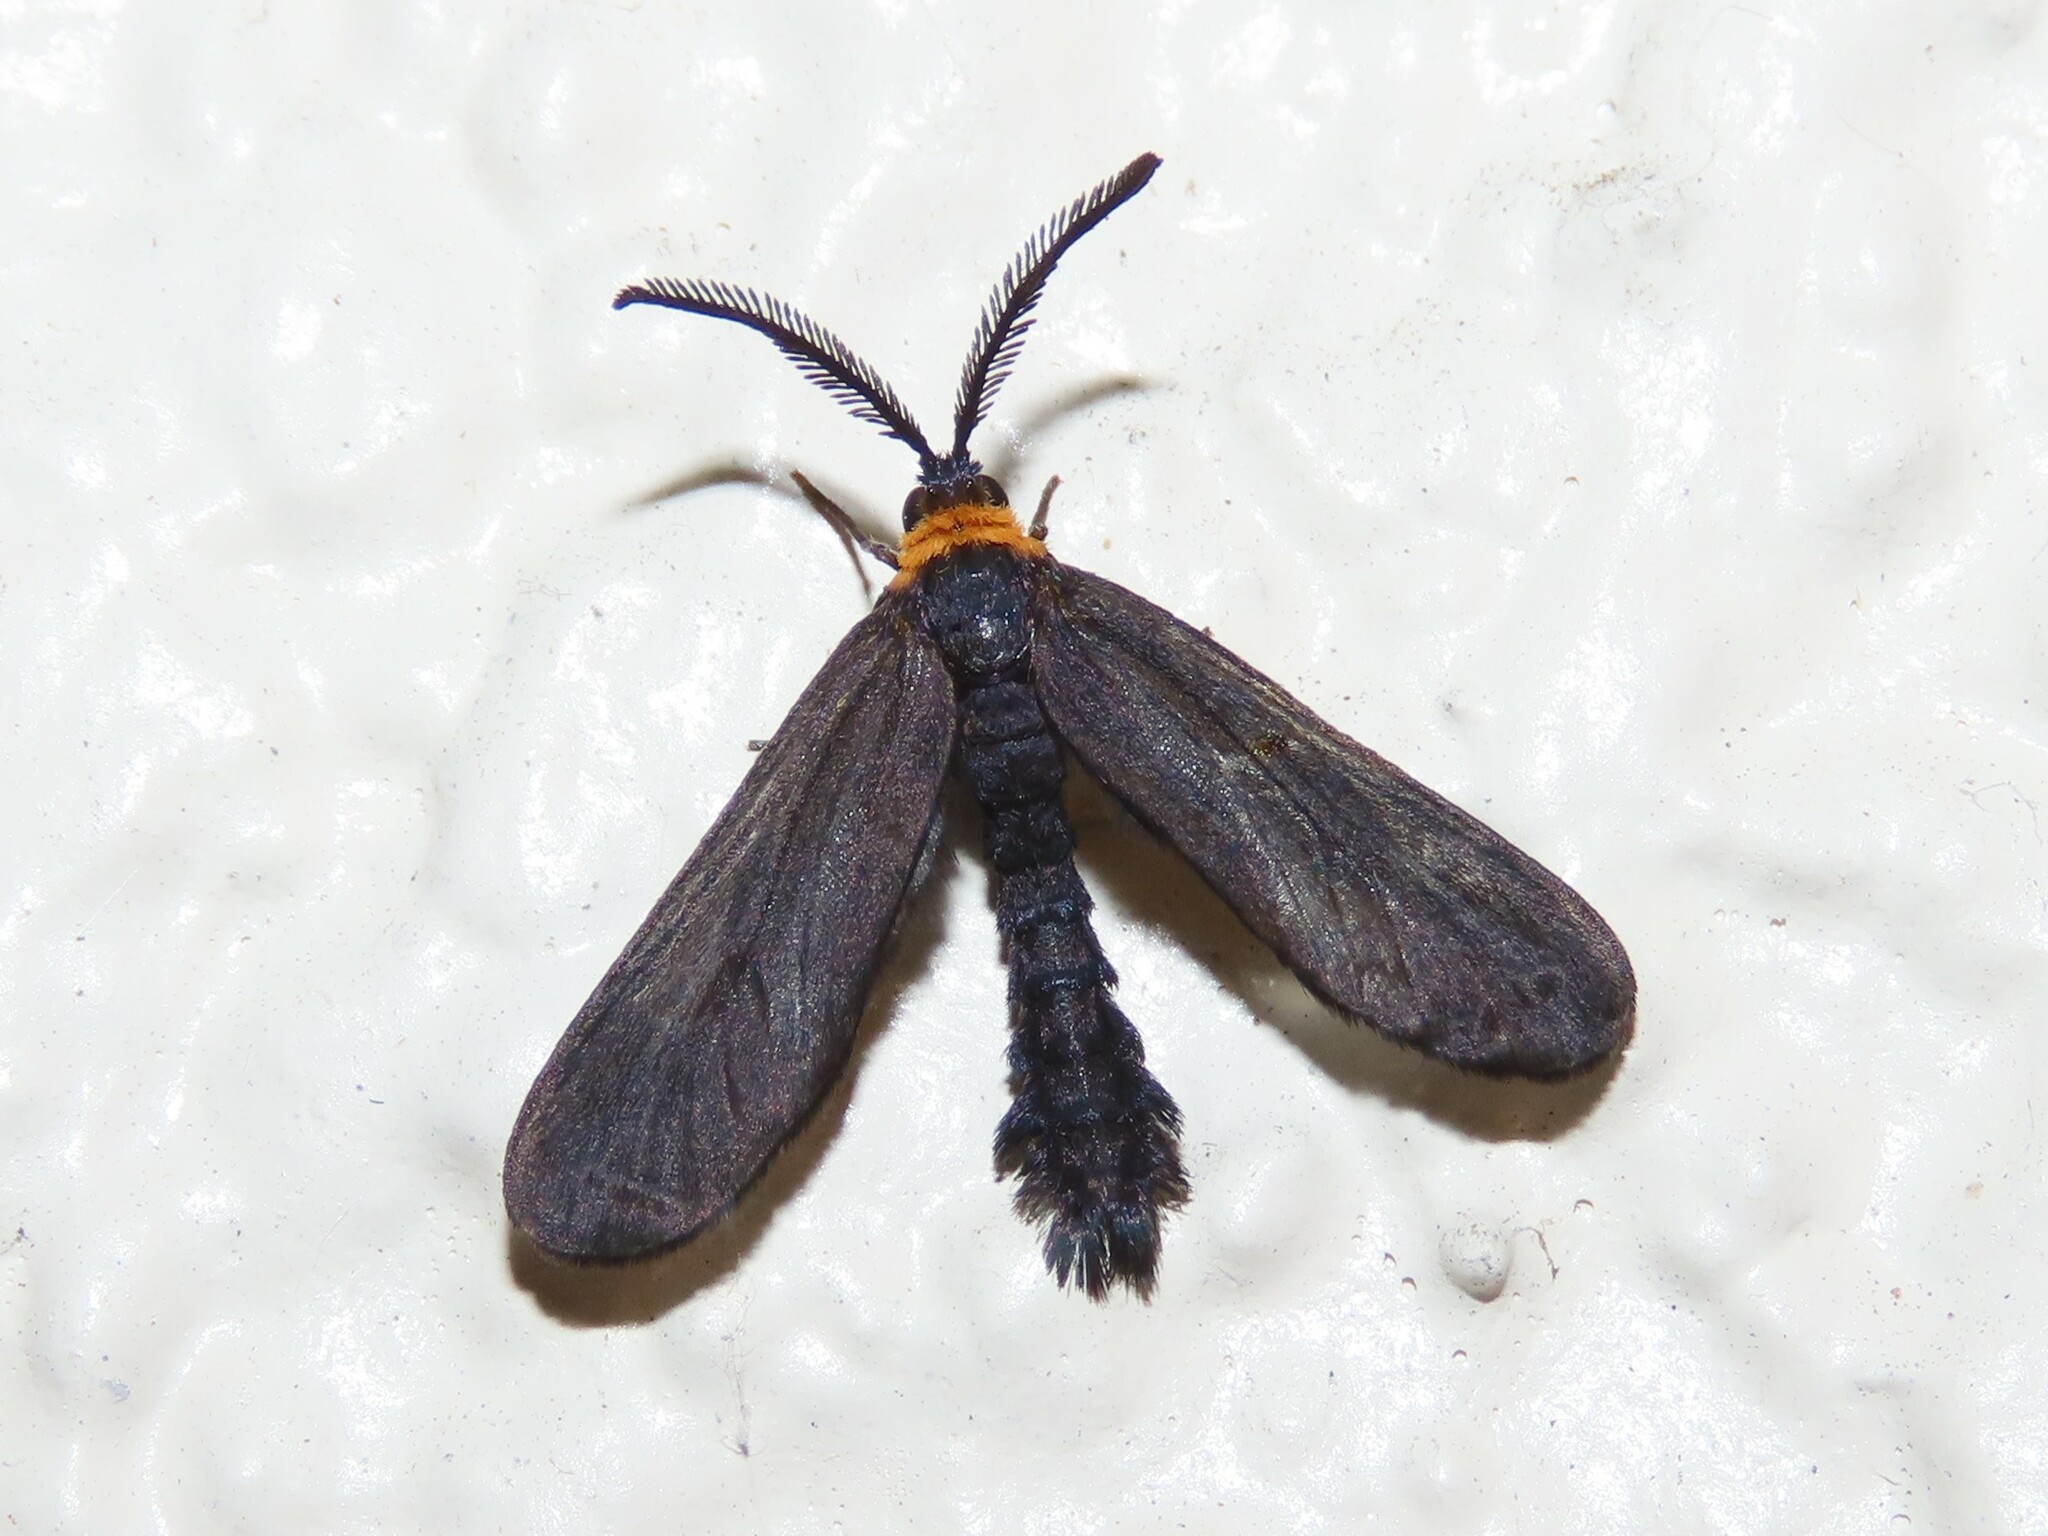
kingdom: Animalia
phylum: Arthropoda
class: Insecta
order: Lepidoptera
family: Zygaenidae
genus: Harrisina
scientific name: Harrisina americana
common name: Grapeleaf skeletonizer moth
